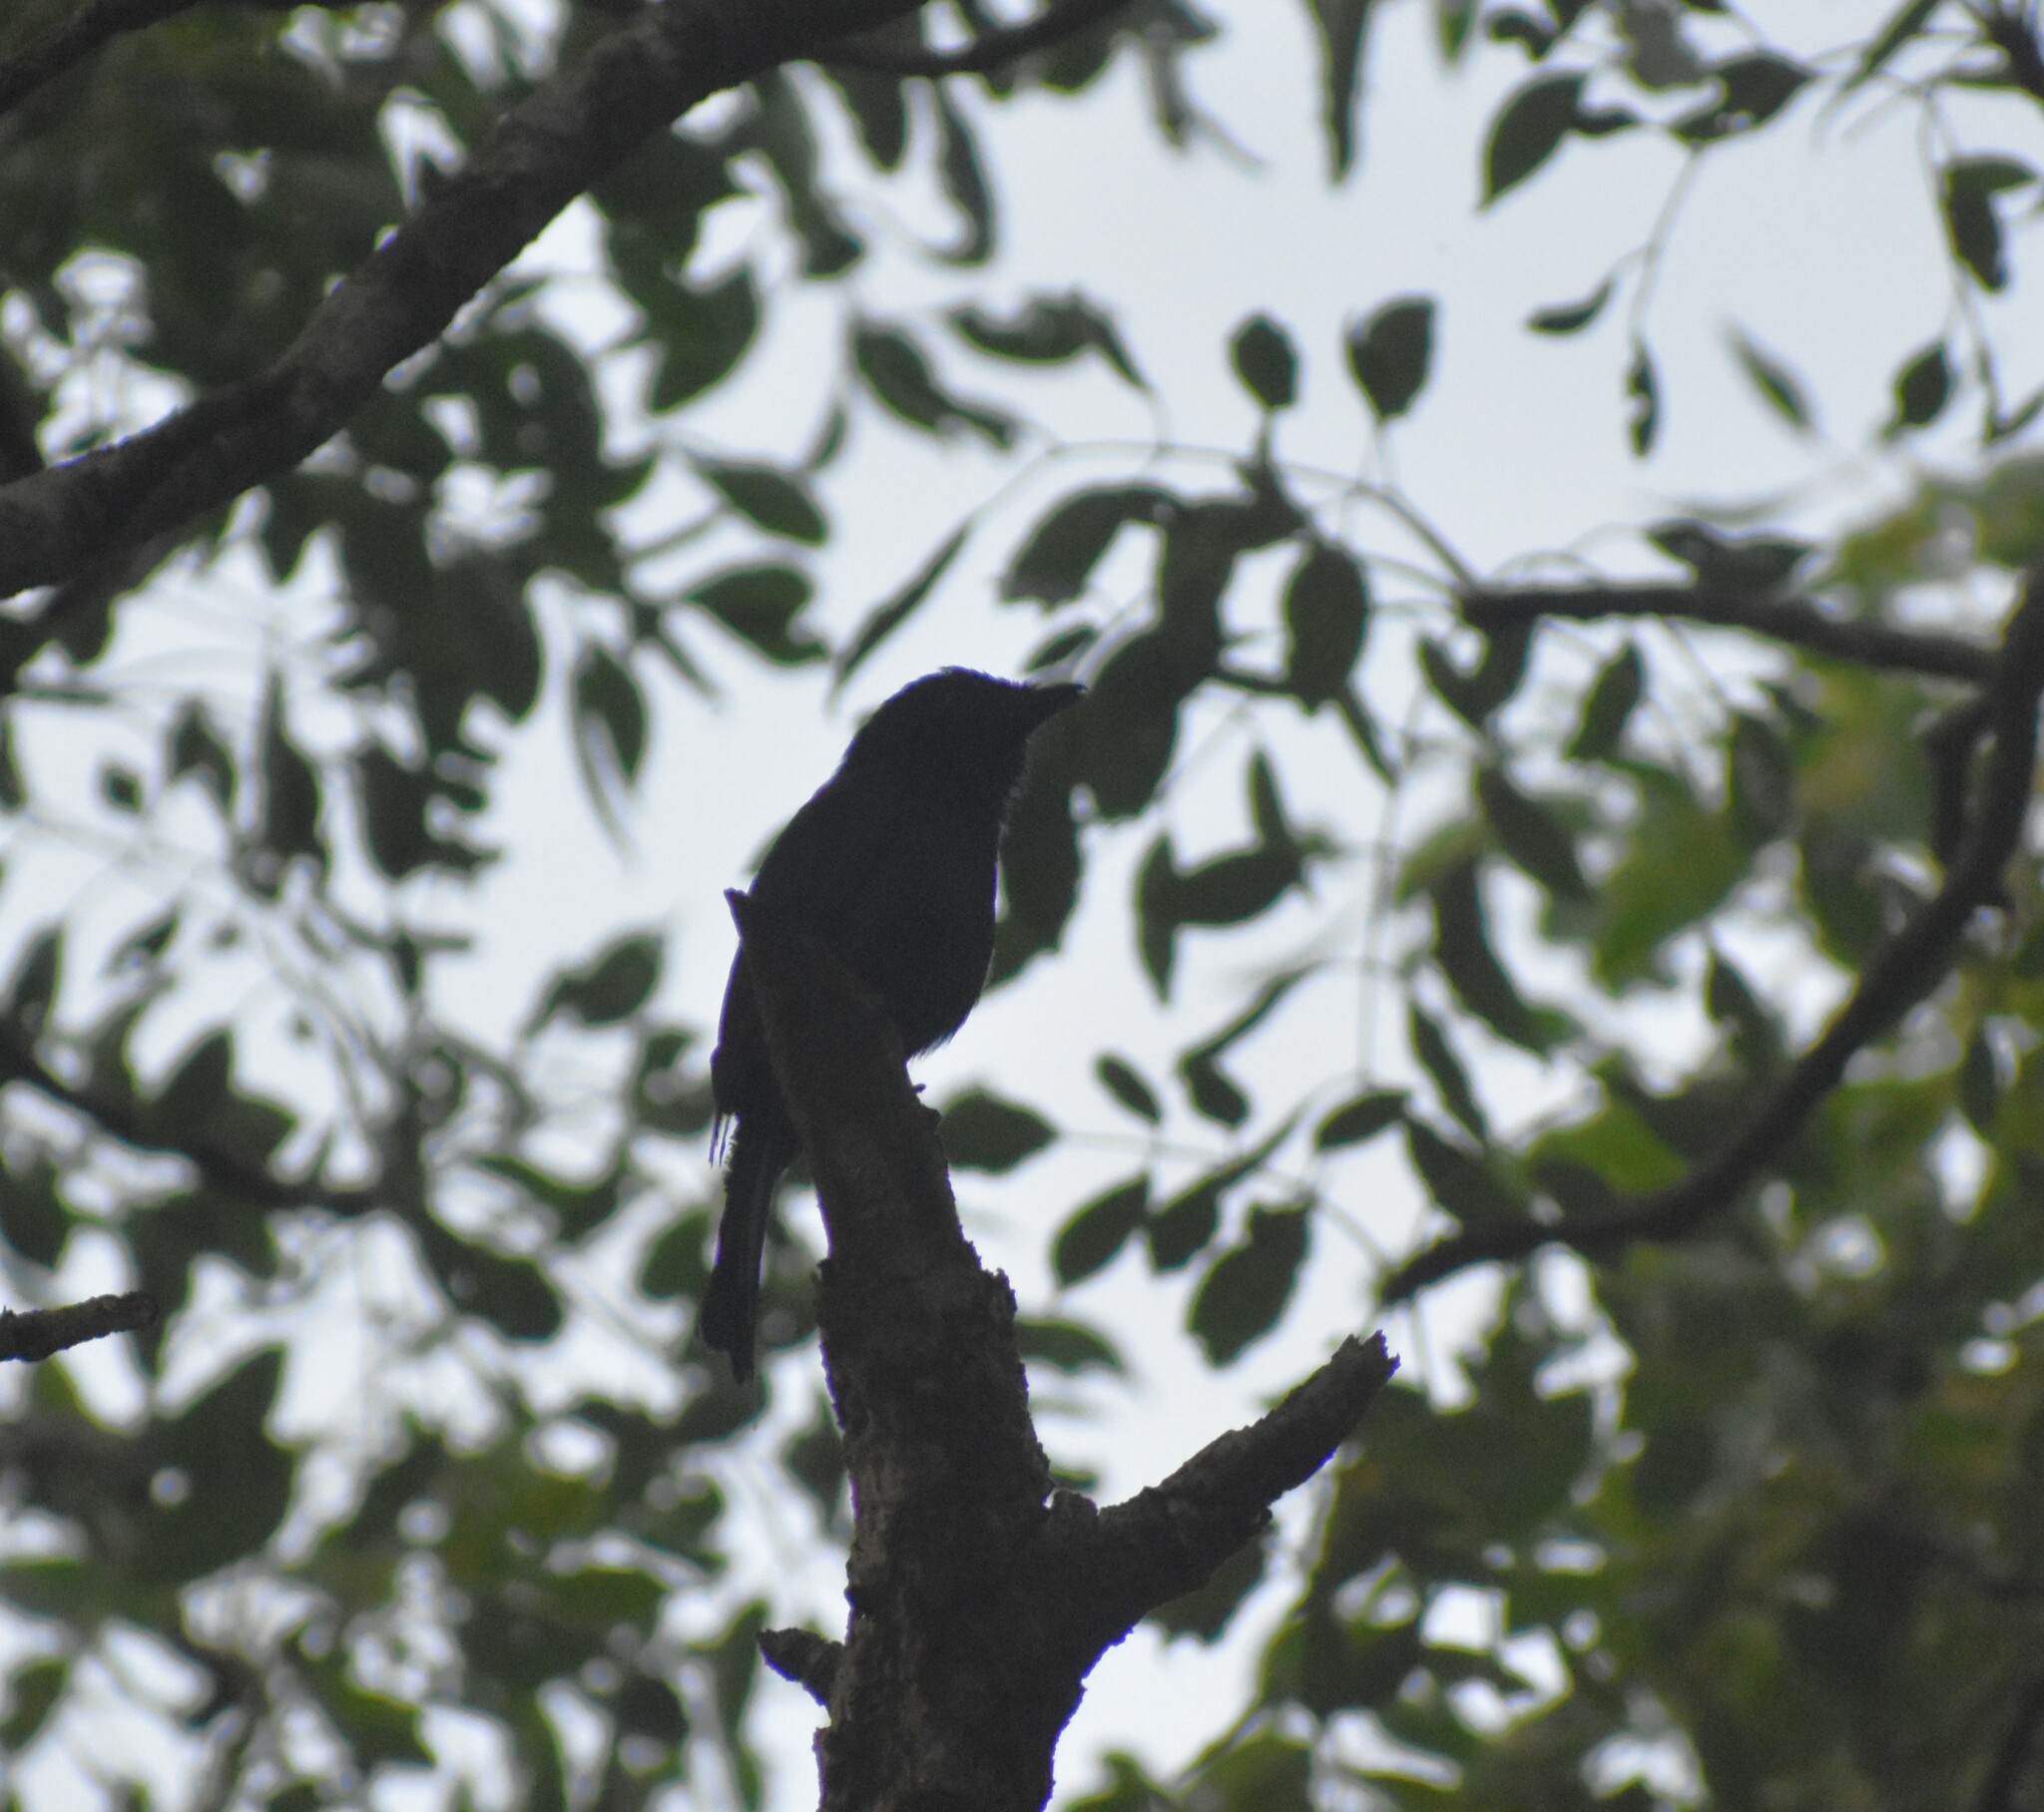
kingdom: Animalia
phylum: Chordata
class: Aves
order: Passeriformes
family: Dicruridae
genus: Dicrurus
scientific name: Dicrurus ludwigii
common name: Square-tailed drongo
